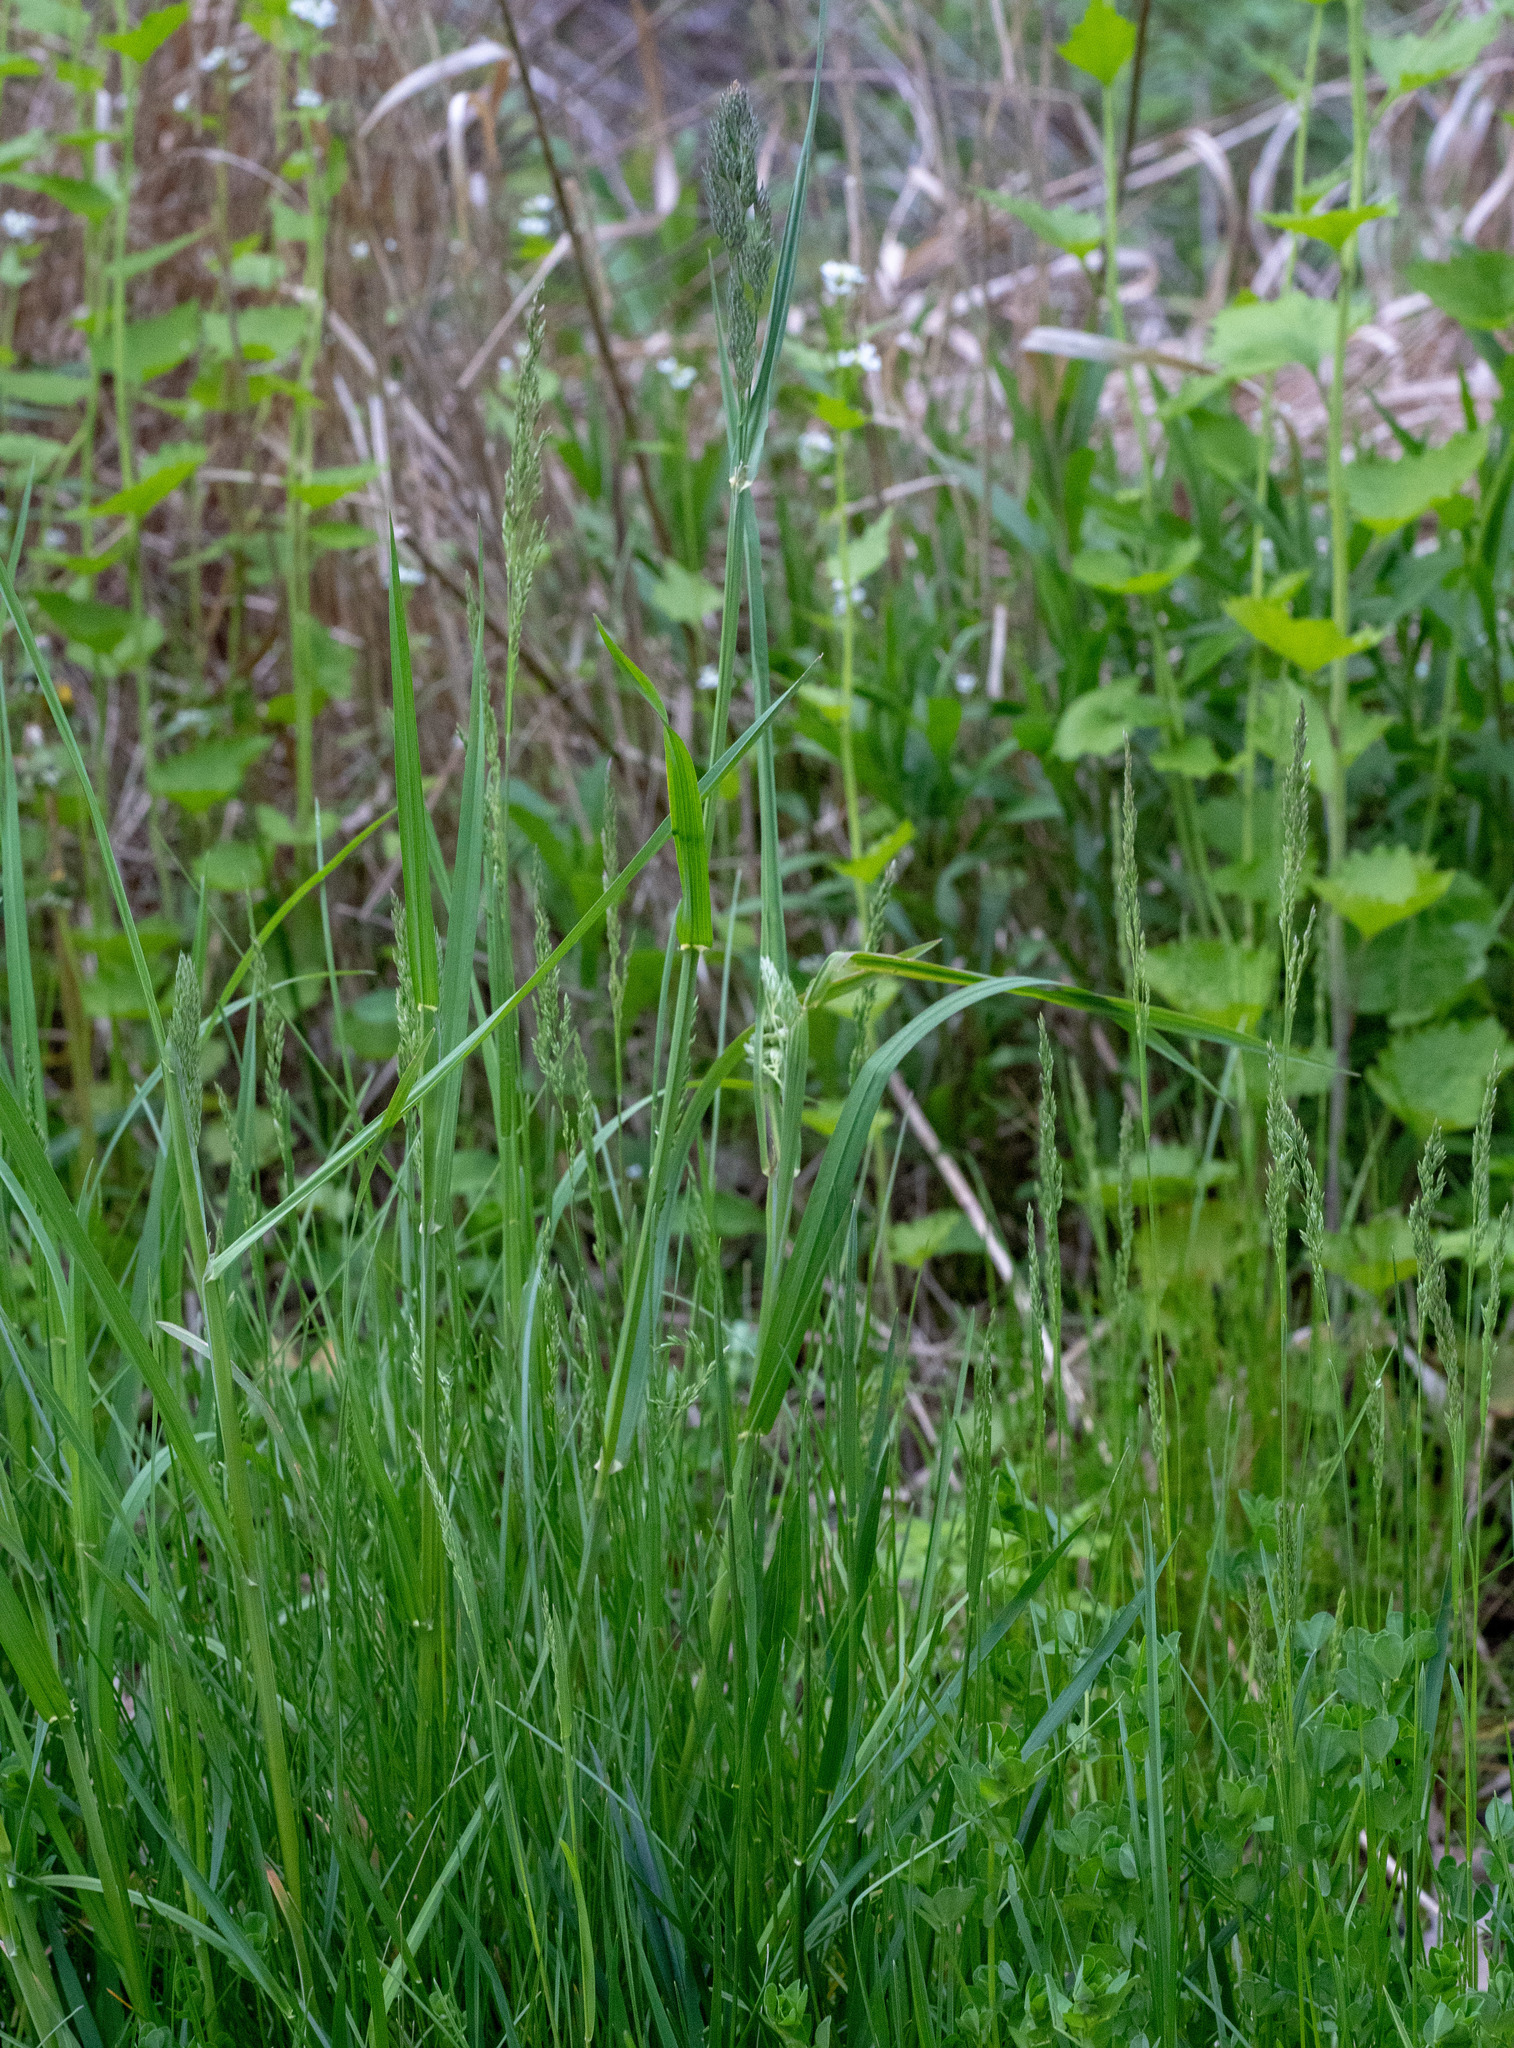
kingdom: Plantae
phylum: Tracheophyta
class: Liliopsida
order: Poales
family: Poaceae
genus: Dactylis
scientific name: Dactylis glomerata
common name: Orchardgrass
